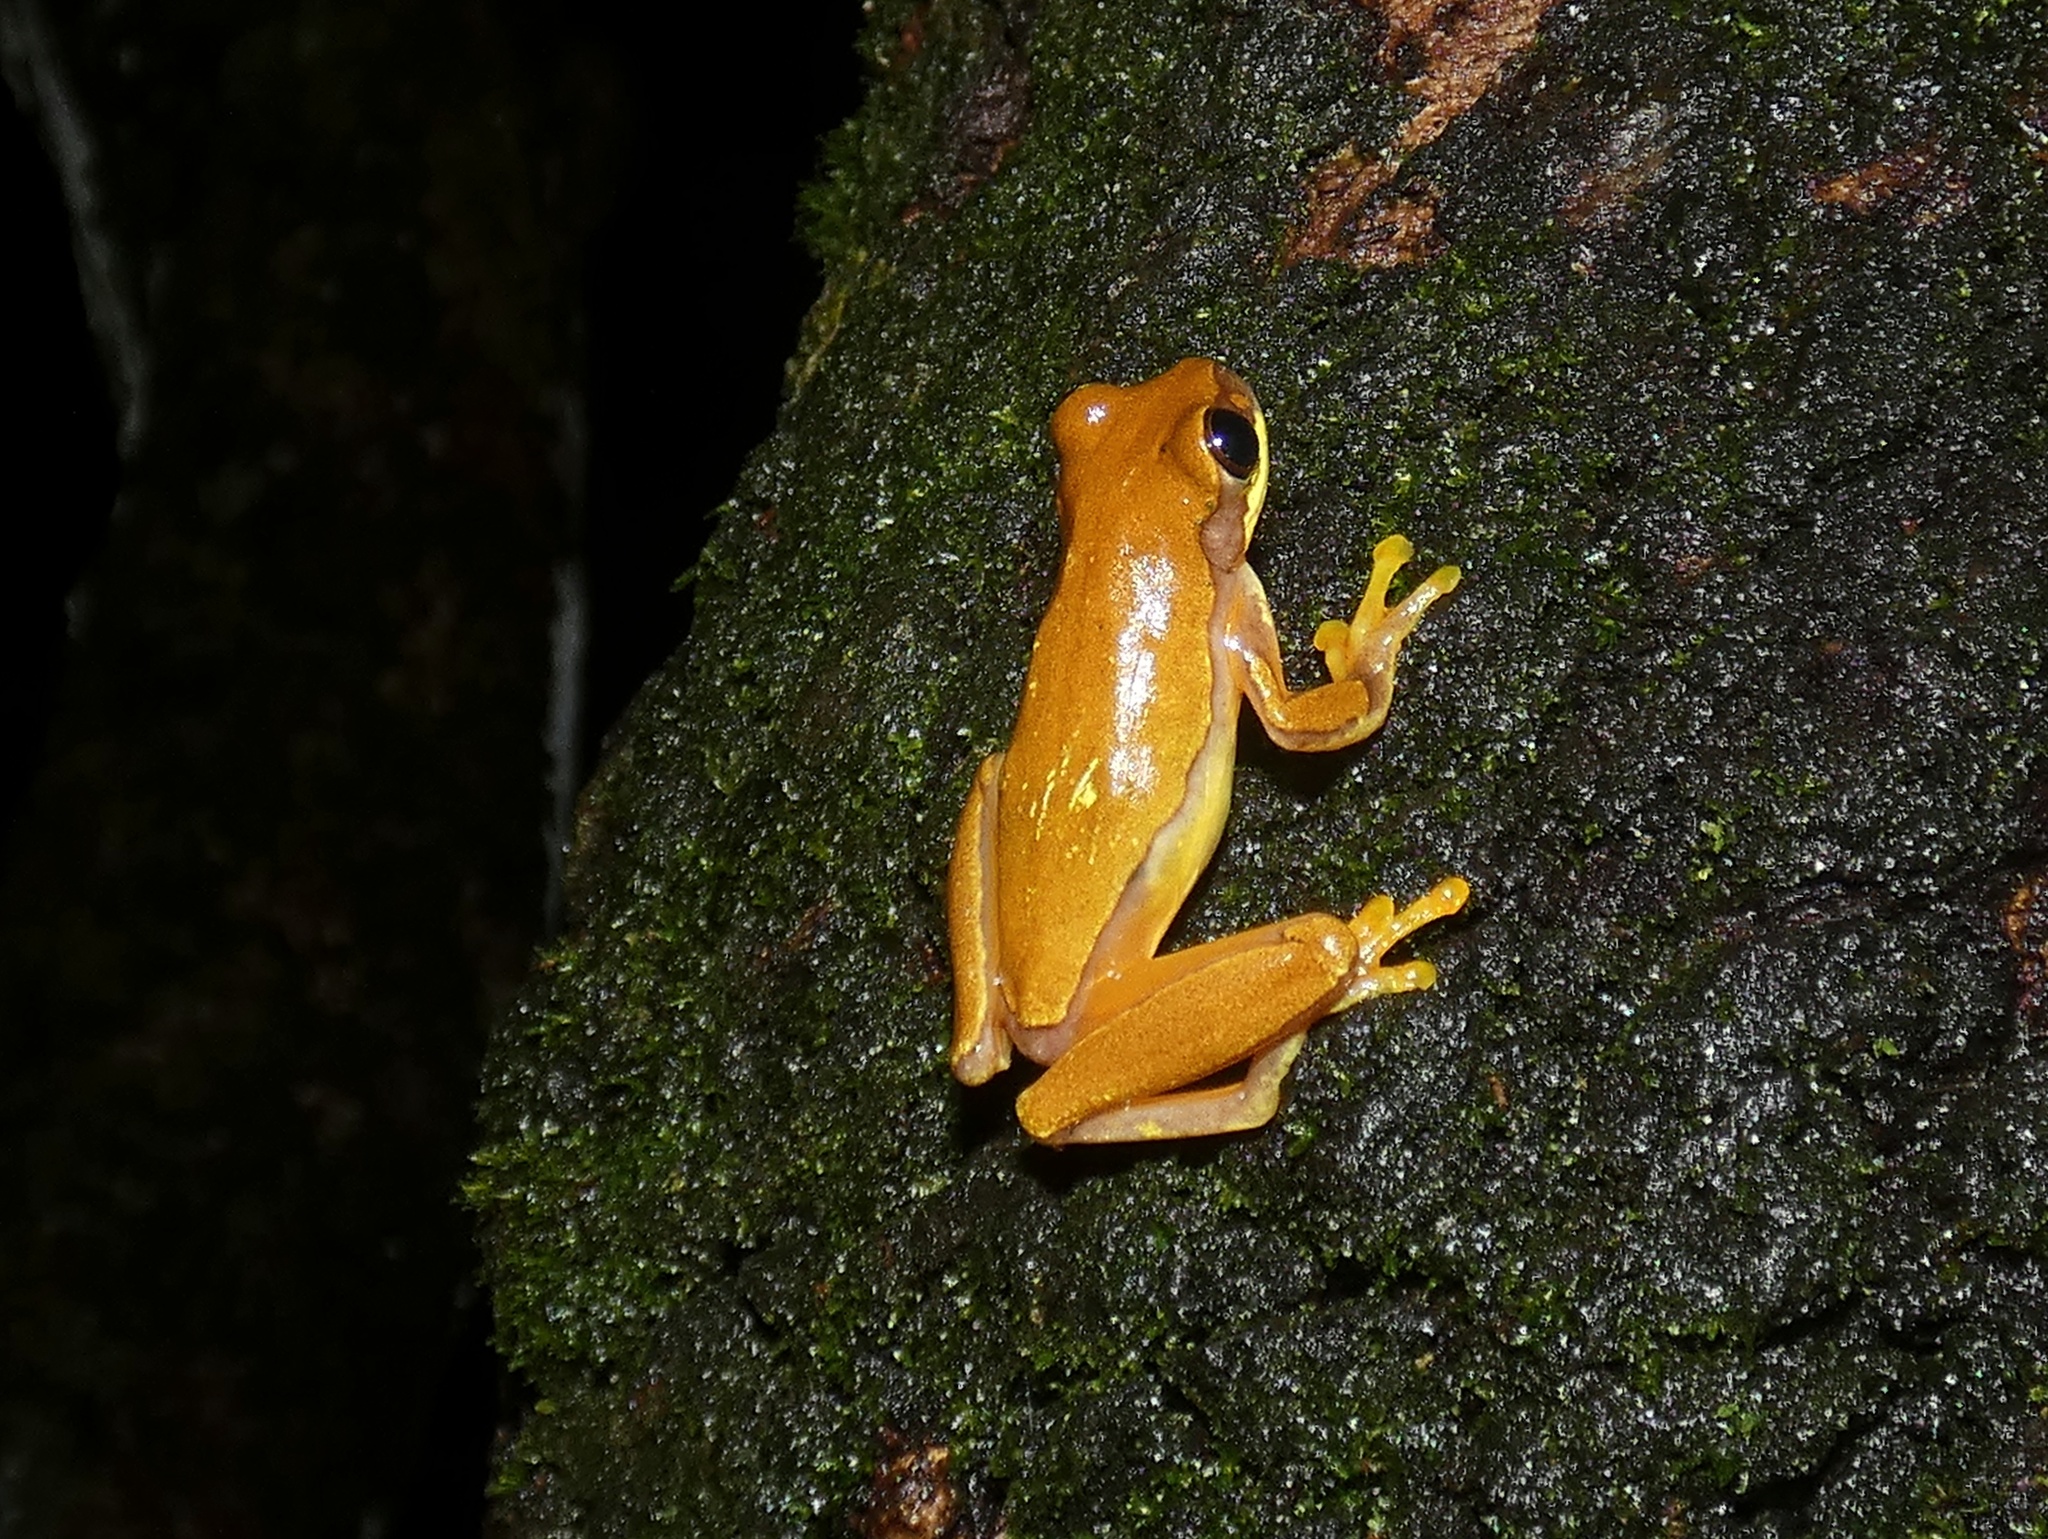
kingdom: Animalia
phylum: Chordata
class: Amphibia
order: Anura
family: Hylidae
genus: Dendropsophus
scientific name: Dendropsophus ebraccatus
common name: Hourglass treefrog
